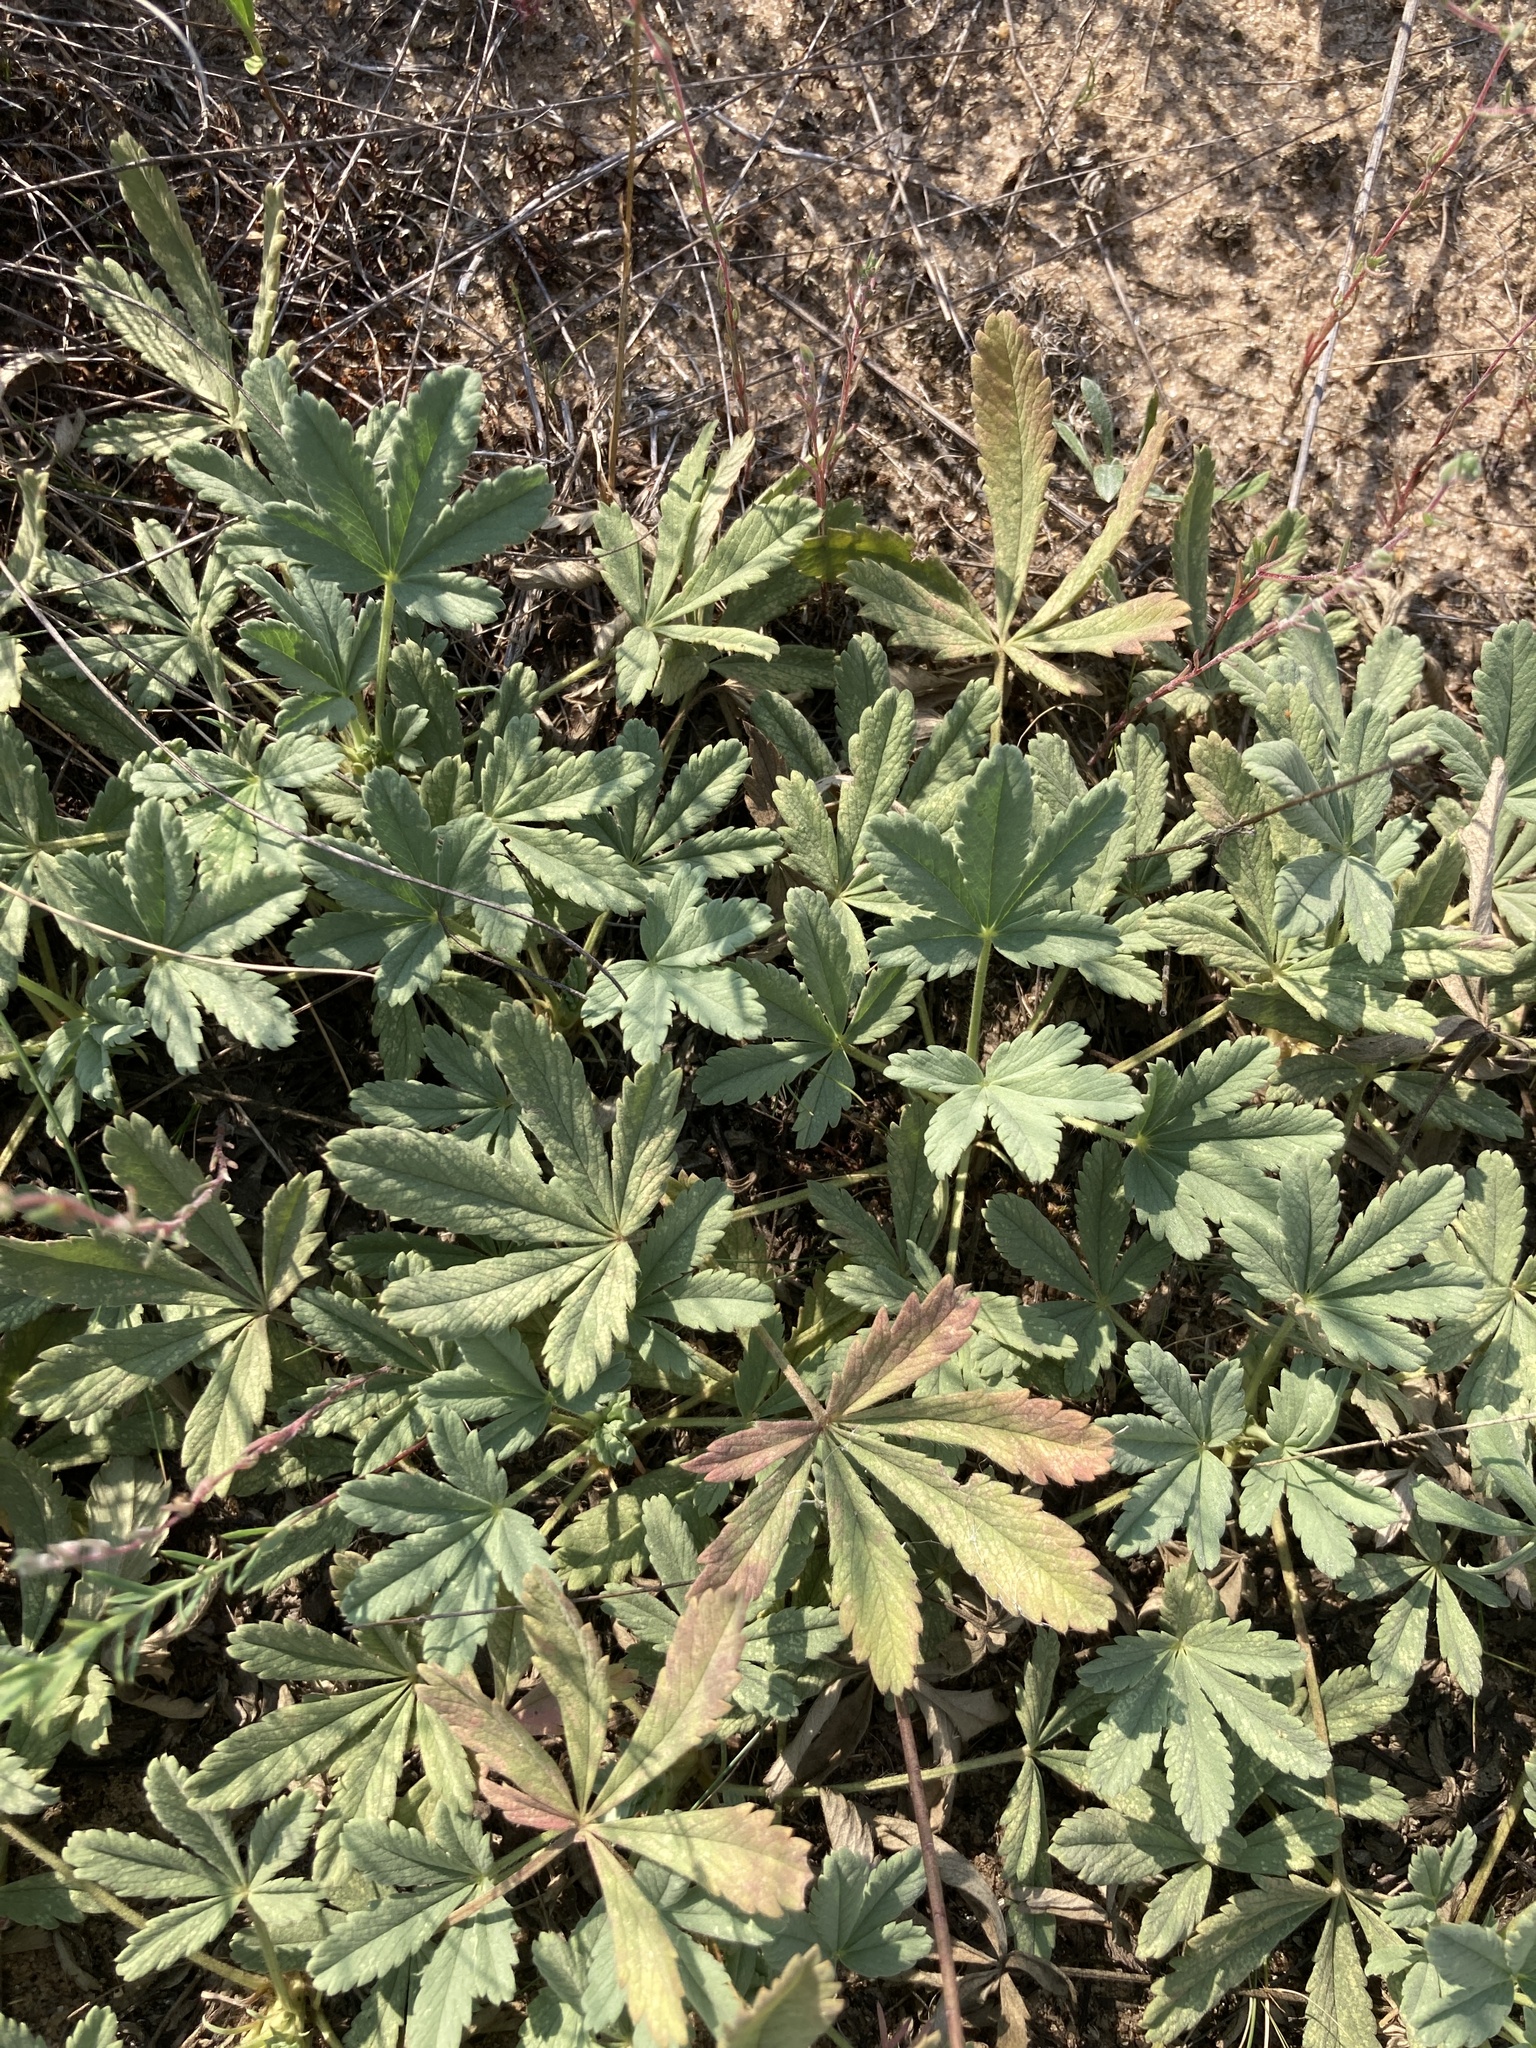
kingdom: Plantae
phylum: Tracheophyta
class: Magnoliopsida
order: Rosales
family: Rosaceae
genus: Potentilla
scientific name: Potentilla incana
